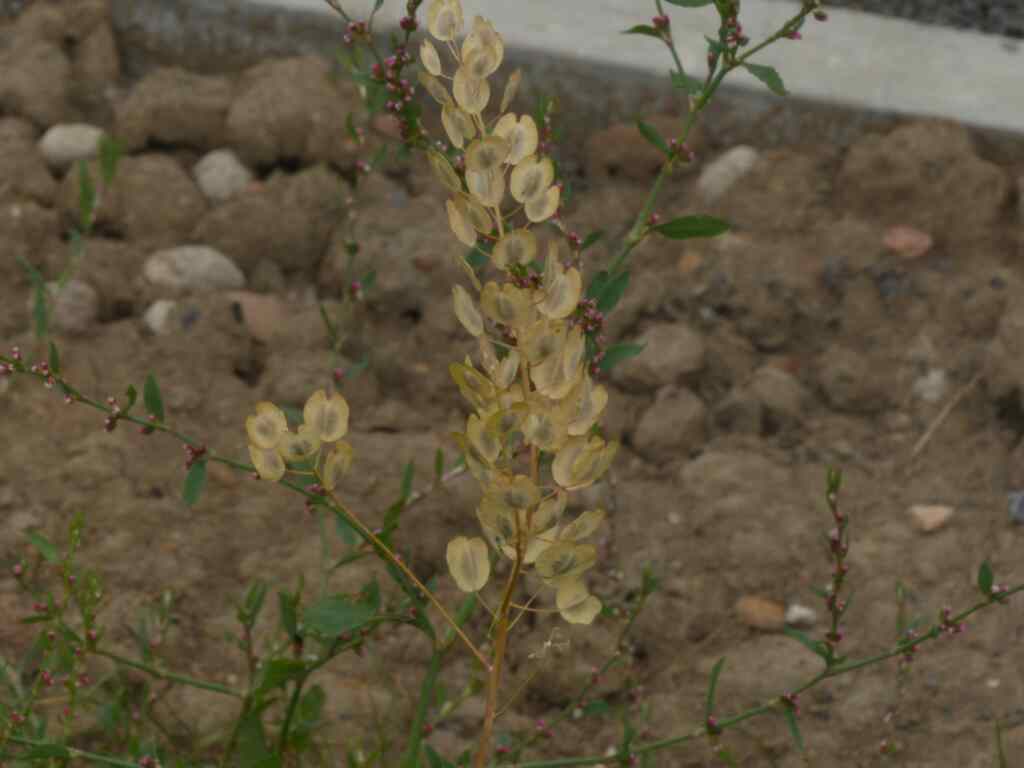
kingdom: Plantae
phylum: Tracheophyta
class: Magnoliopsida
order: Brassicales
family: Brassicaceae
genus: Thlaspi
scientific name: Thlaspi arvense
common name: Field pennycress
